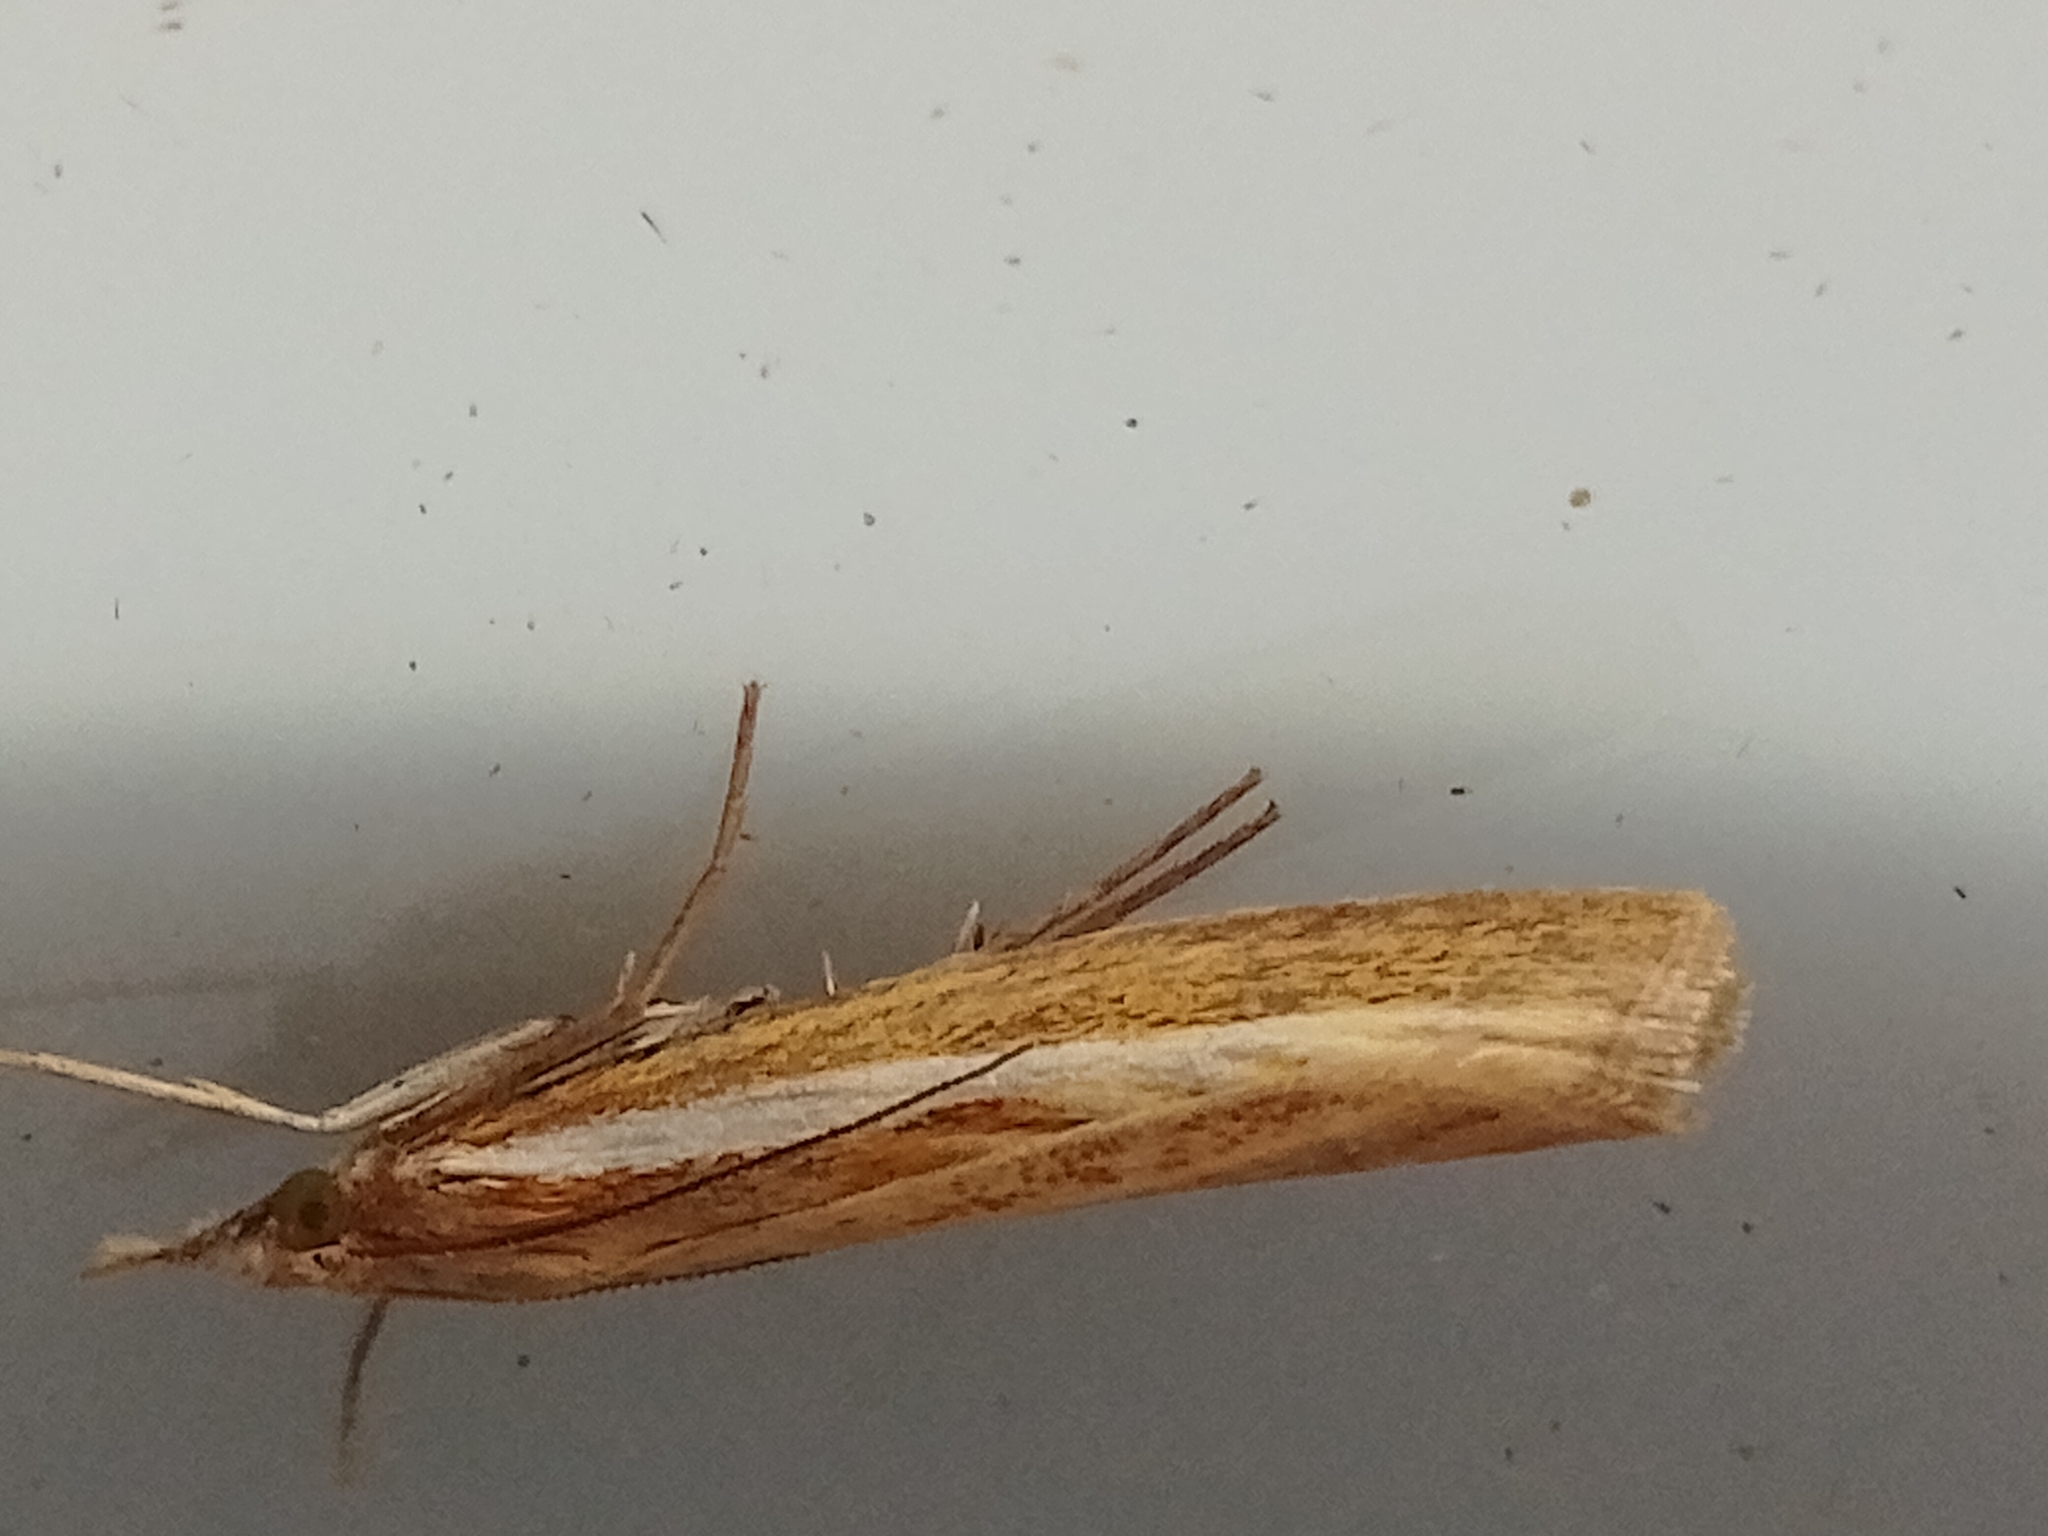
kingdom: Animalia
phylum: Arthropoda
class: Insecta
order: Lepidoptera
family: Crambidae
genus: Agriphila
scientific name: Agriphila tristellus
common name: Common grass-veneer
